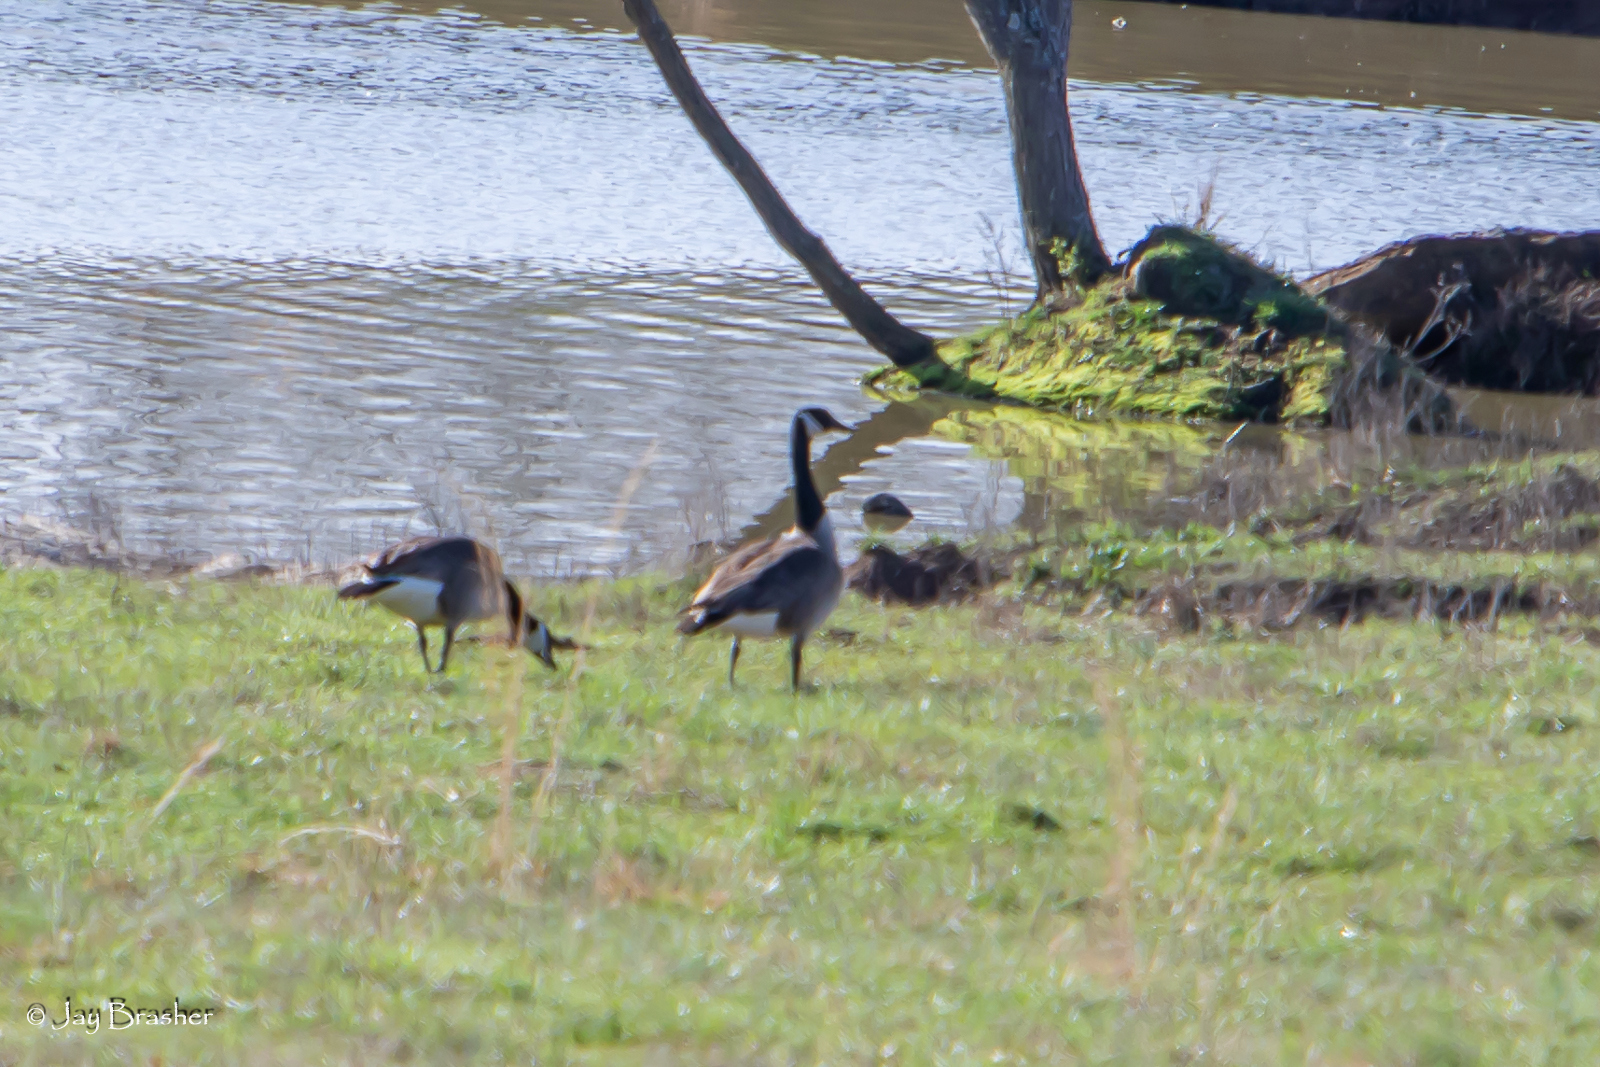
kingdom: Animalia
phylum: Chordata
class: Aves
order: Anseriformes
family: Anatidae
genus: Branta
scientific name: Branta canadensis
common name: Canada goose
